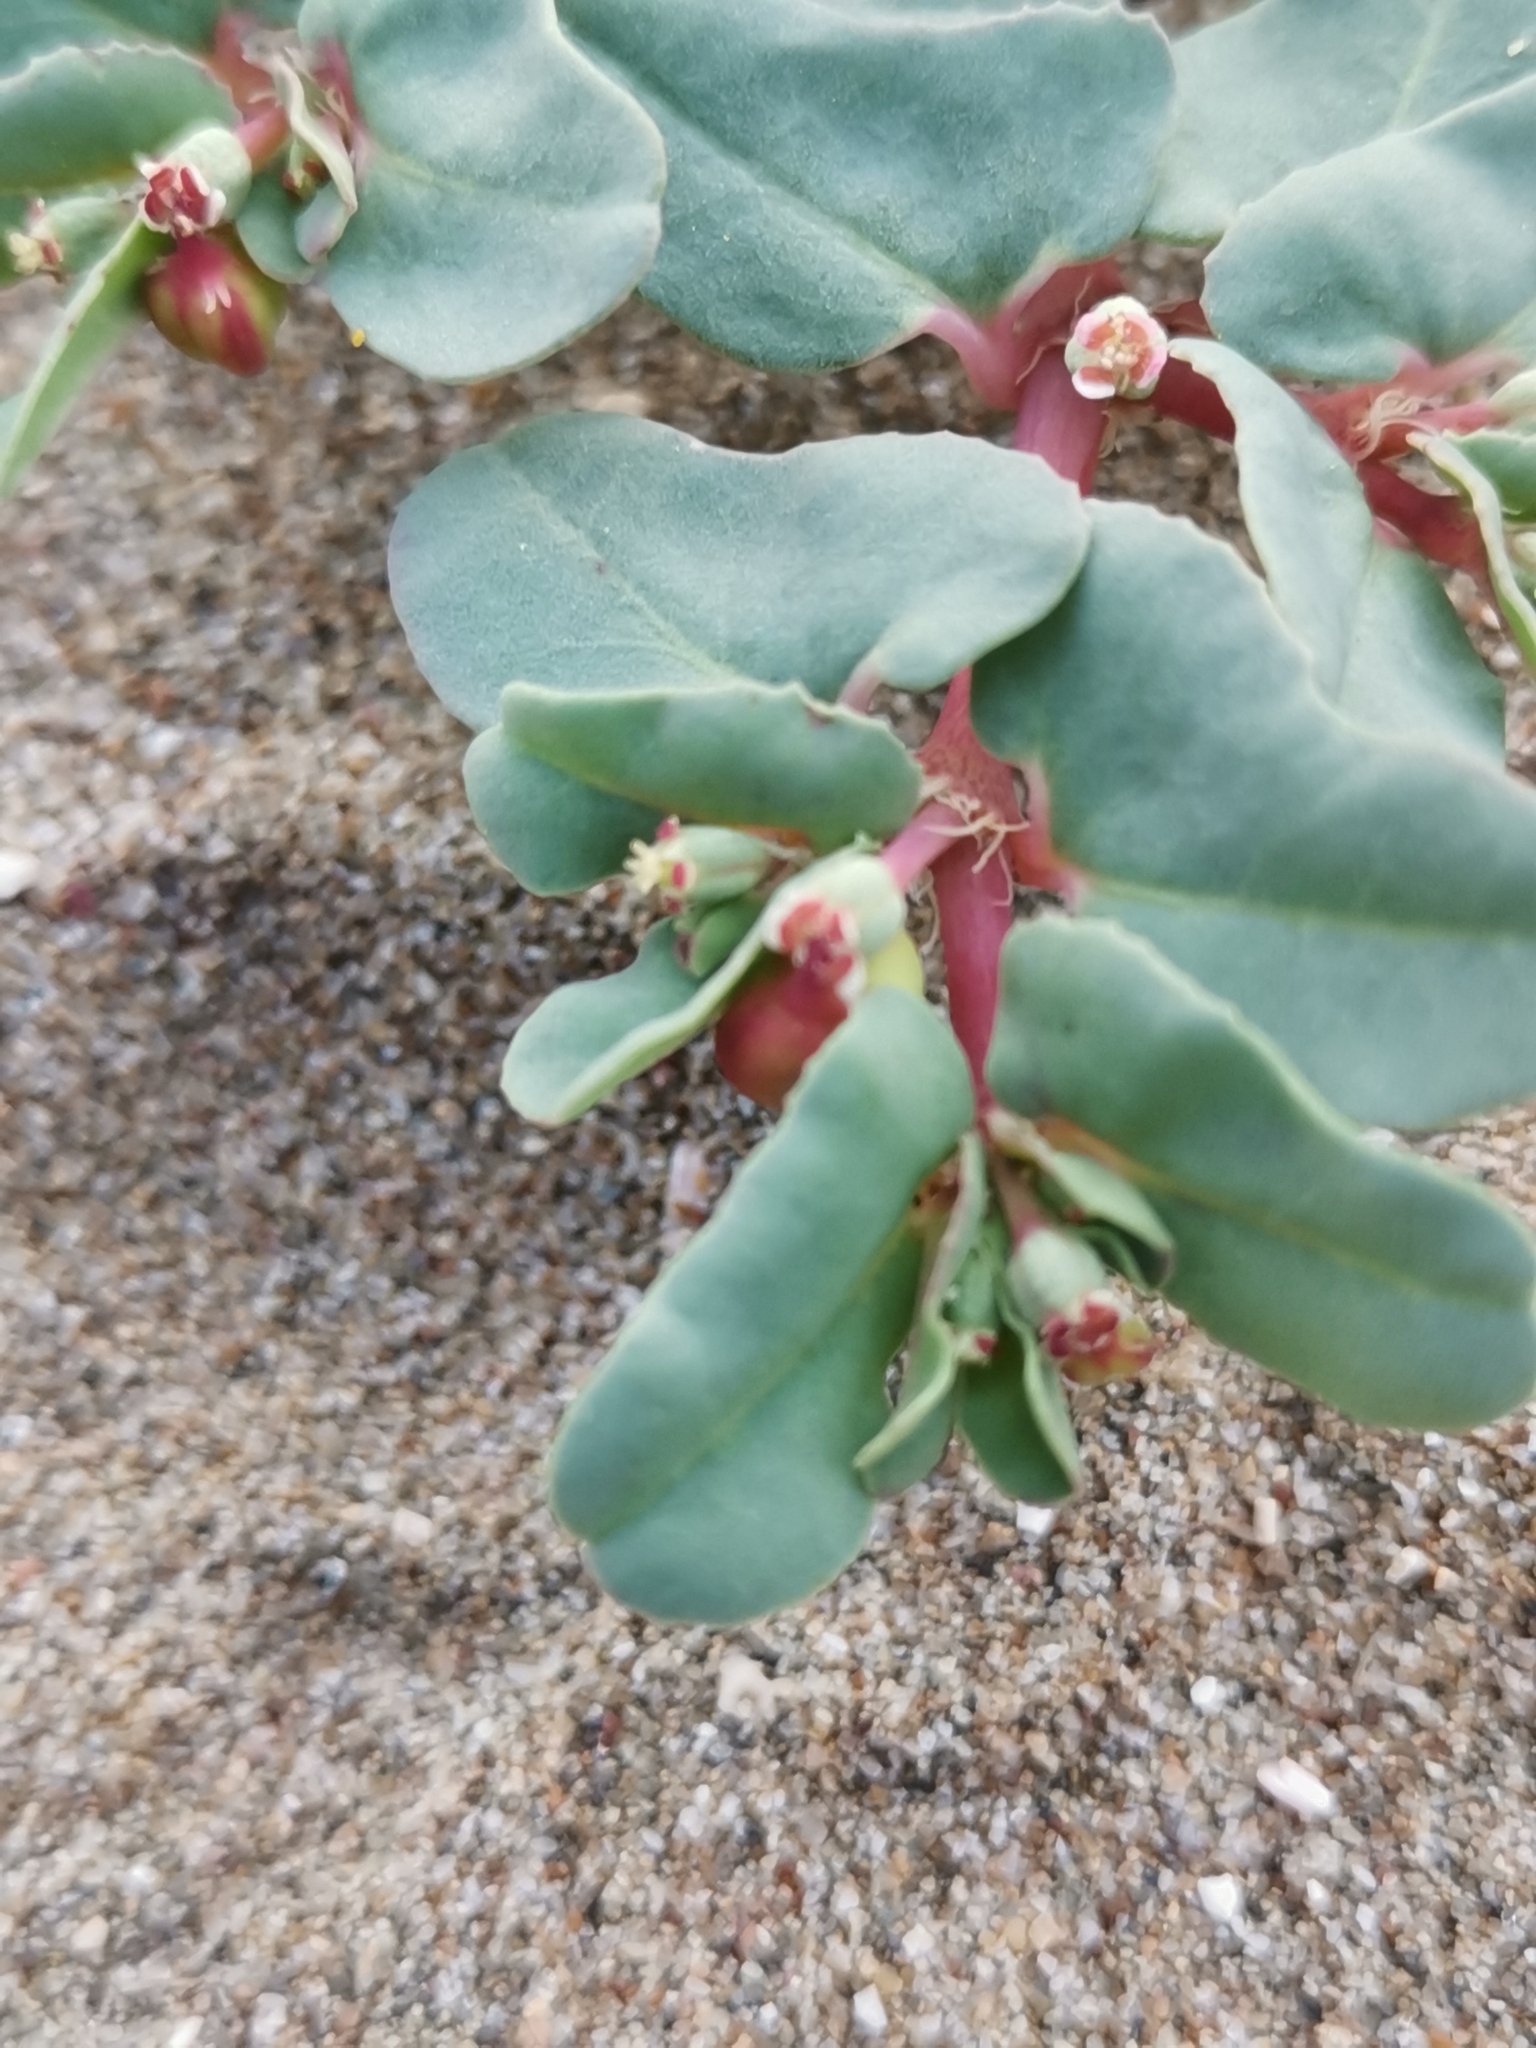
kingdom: Plantae
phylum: Tracheophyta
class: Magnoliopsida
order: Malpighiales
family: Euphorbiaceae
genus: Euphorbia
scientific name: Euphorbia peplis
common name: Purple spurge
